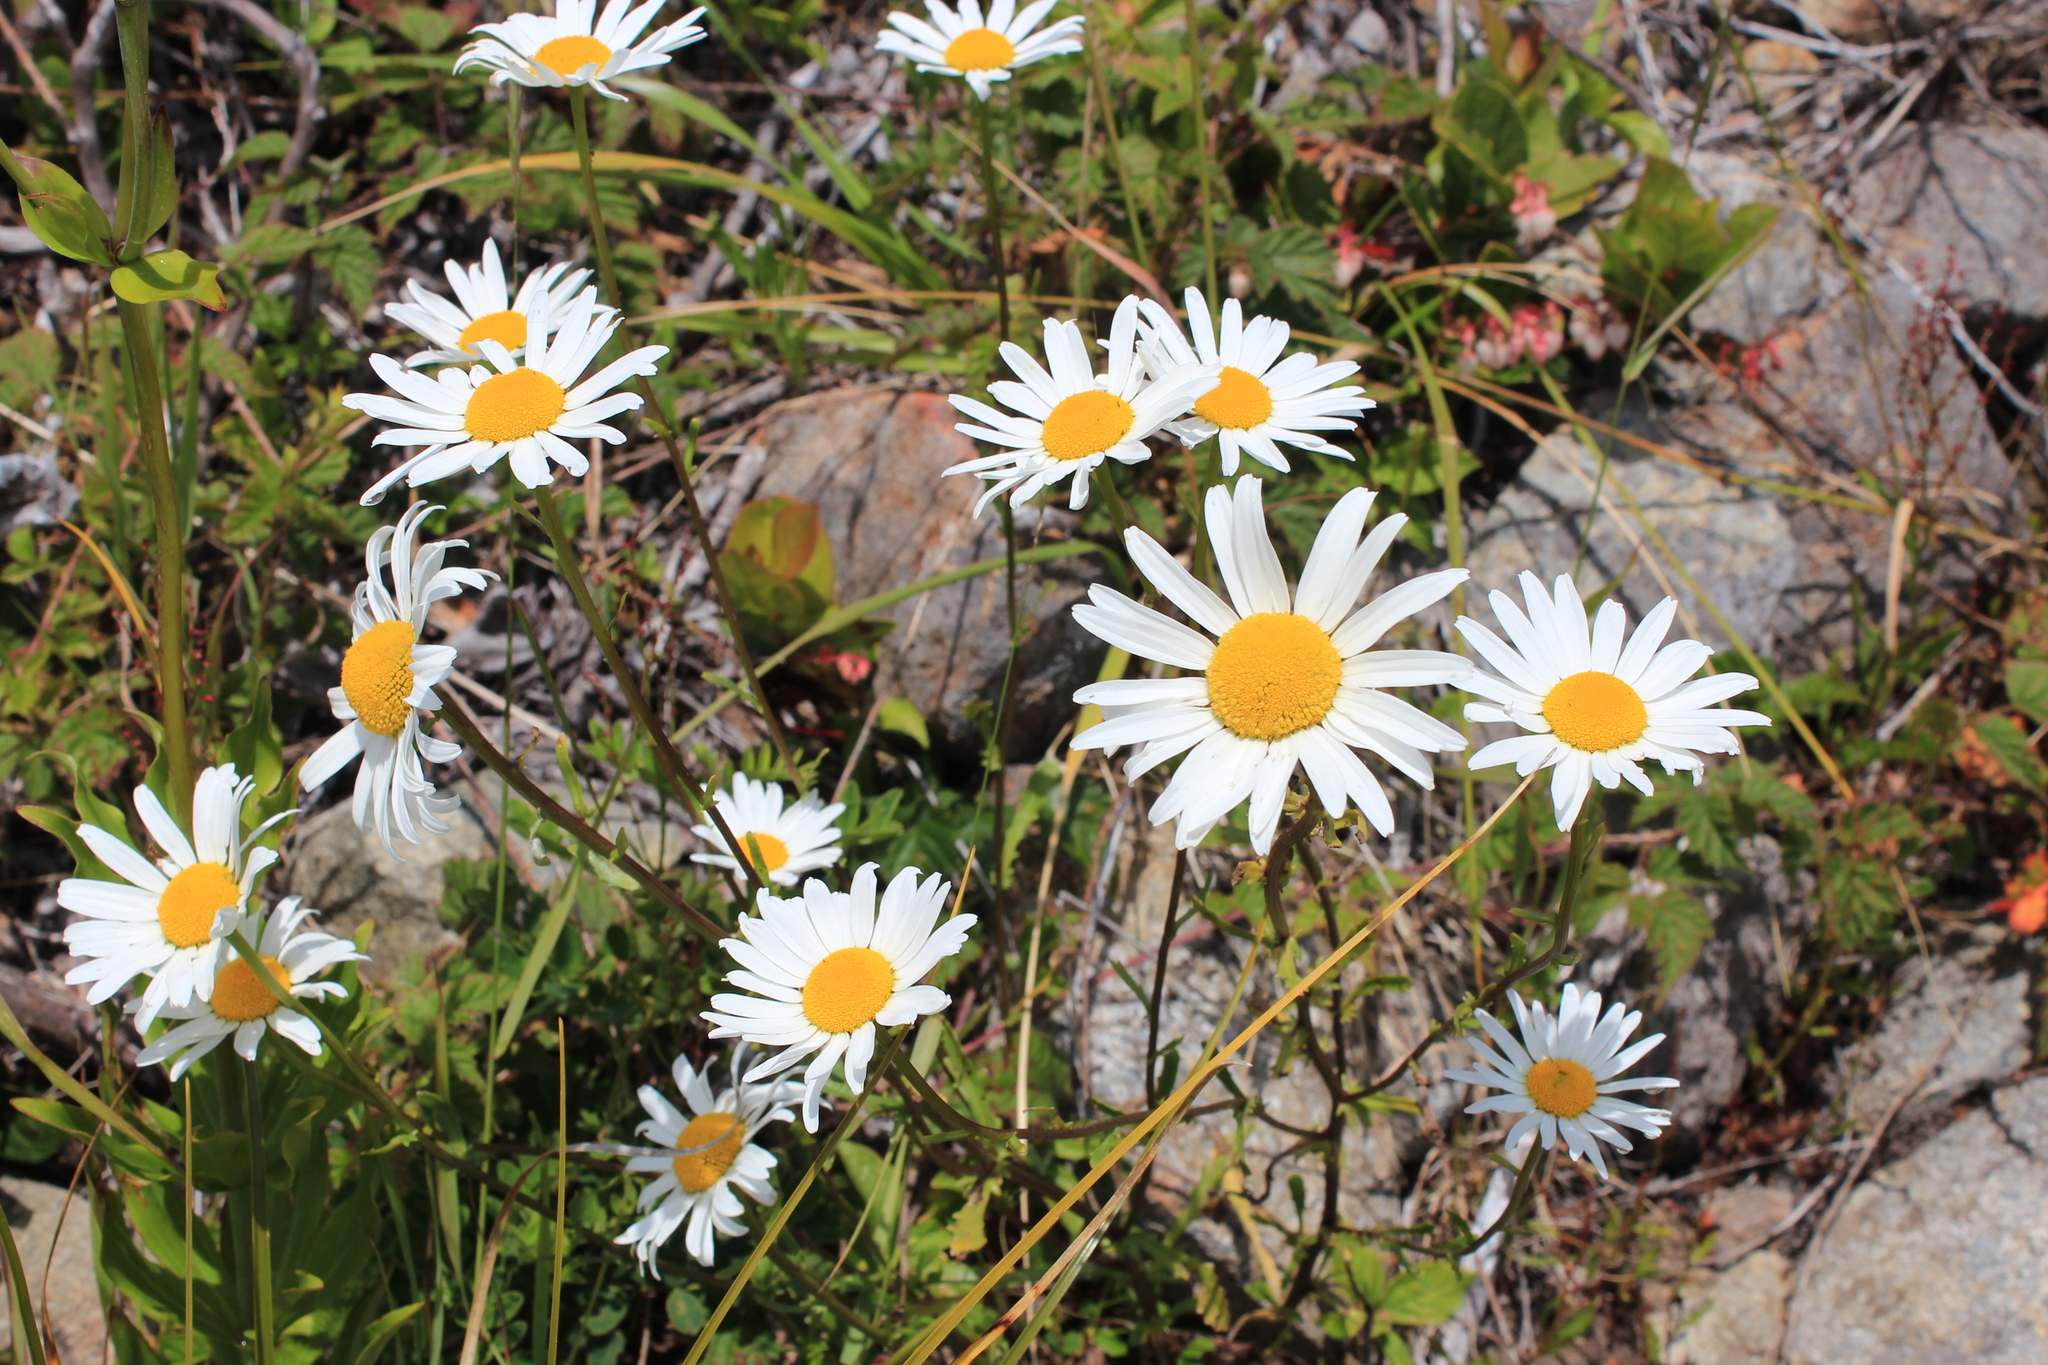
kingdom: Plantae
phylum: Tracheophyta
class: Magnoliopsida
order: Asterales
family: Asteraceae
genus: Leucanthemum
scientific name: Leucanthemum vulgare
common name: Oxeye daisy
